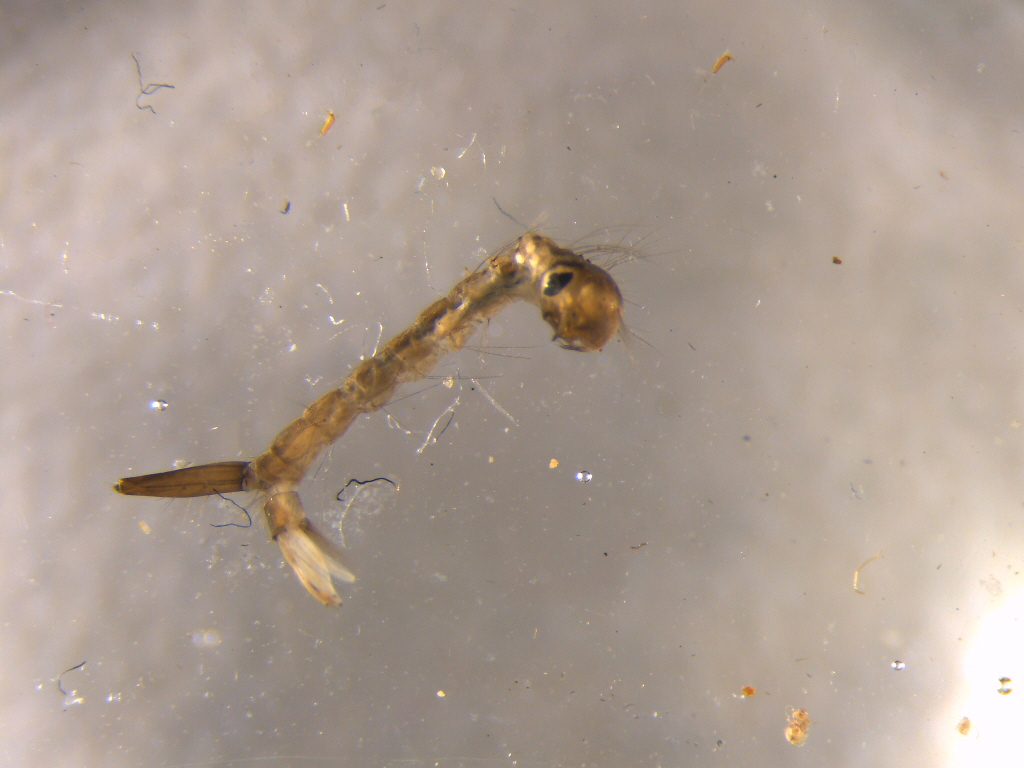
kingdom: Animalia
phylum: Arthropoda
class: Insecta
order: Diptera
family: Culicidae
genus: Culex
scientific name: Culex pervigilans
